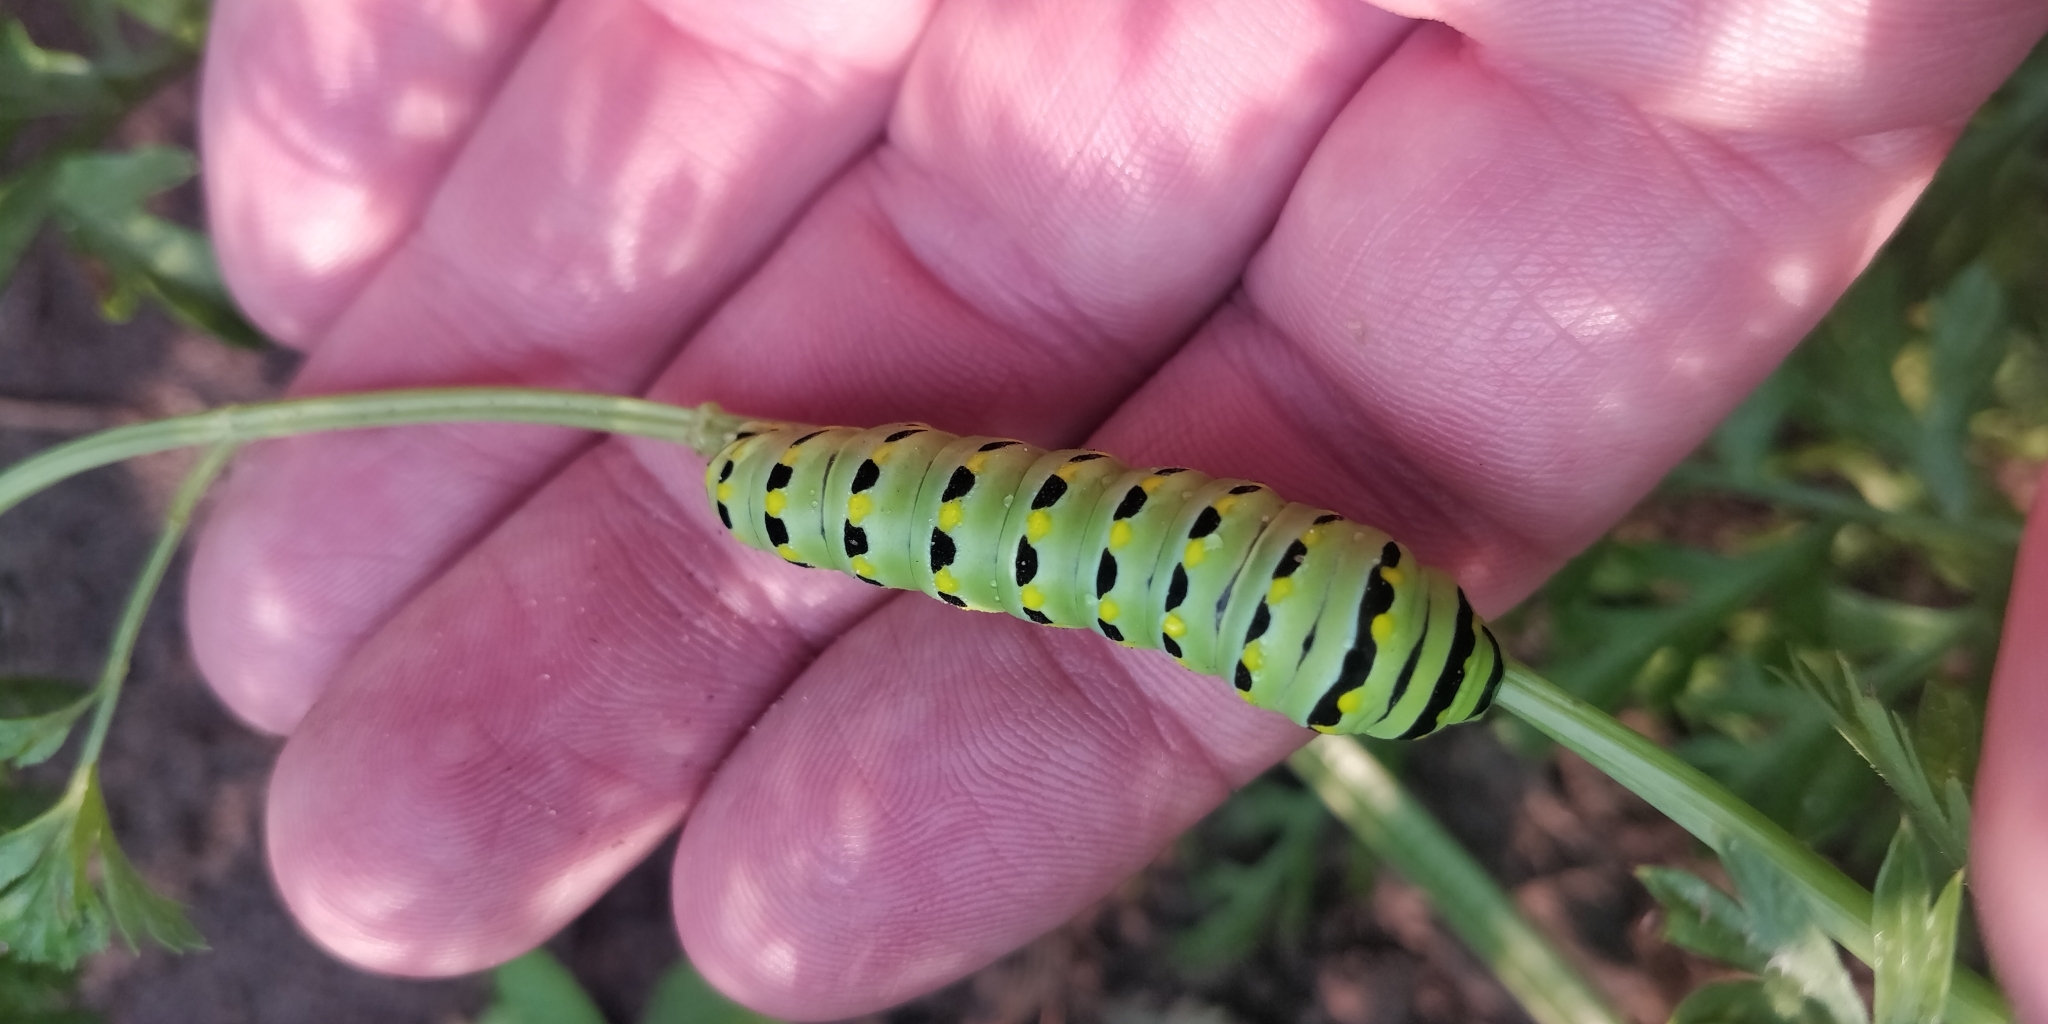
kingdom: Animalia
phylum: Arthropoda
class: Insecta
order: Lepidoptera
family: Papilionidae
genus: Papilio
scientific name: Papilio polyxenes
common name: Black swallowtail
